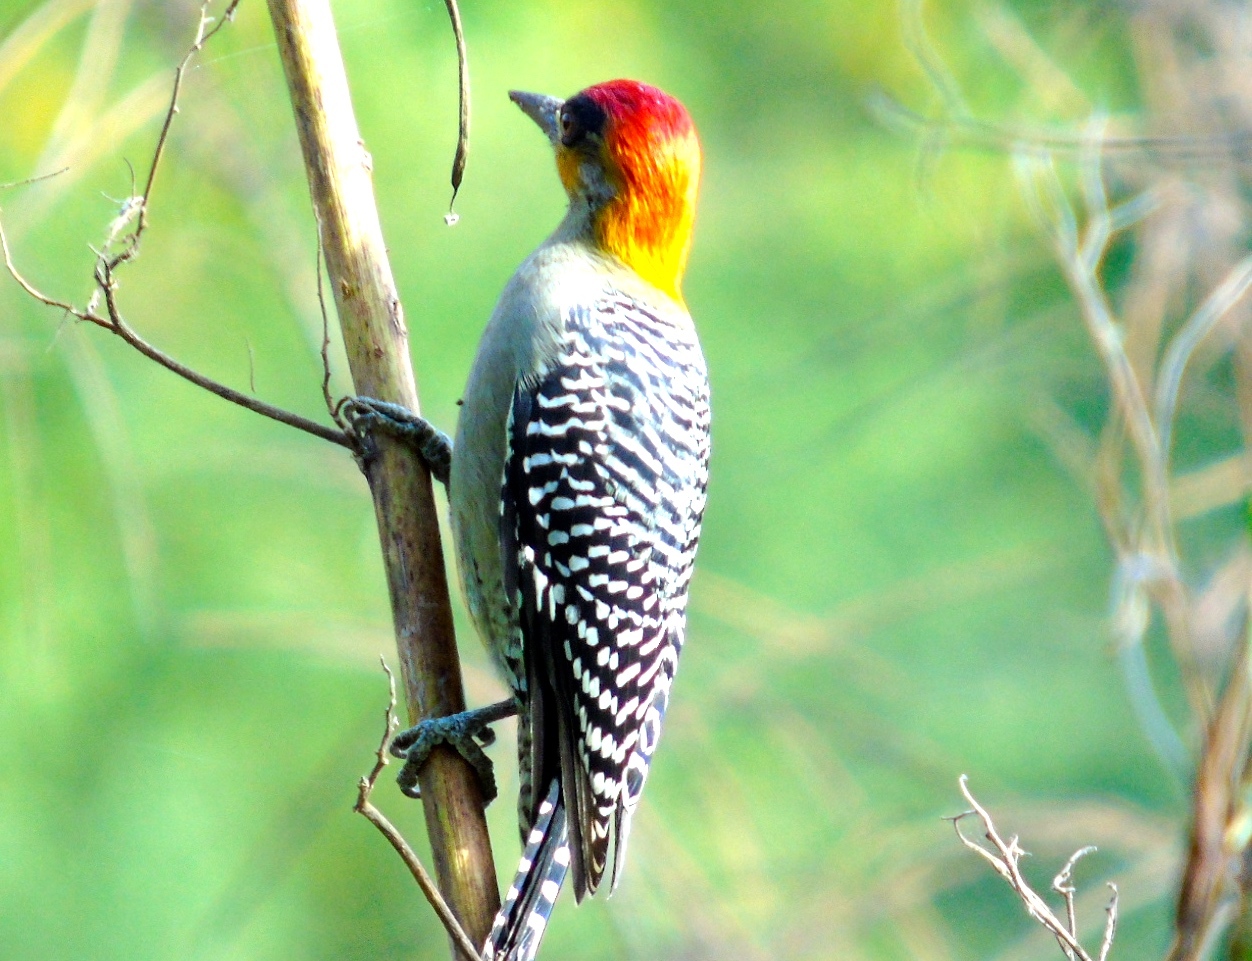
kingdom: Animalia
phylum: Chordata
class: Aves
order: Piciformes
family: Picidae
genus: Melanerpes
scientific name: Melanerpes chrysogenys
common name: Golden-cheeked woodpecker
